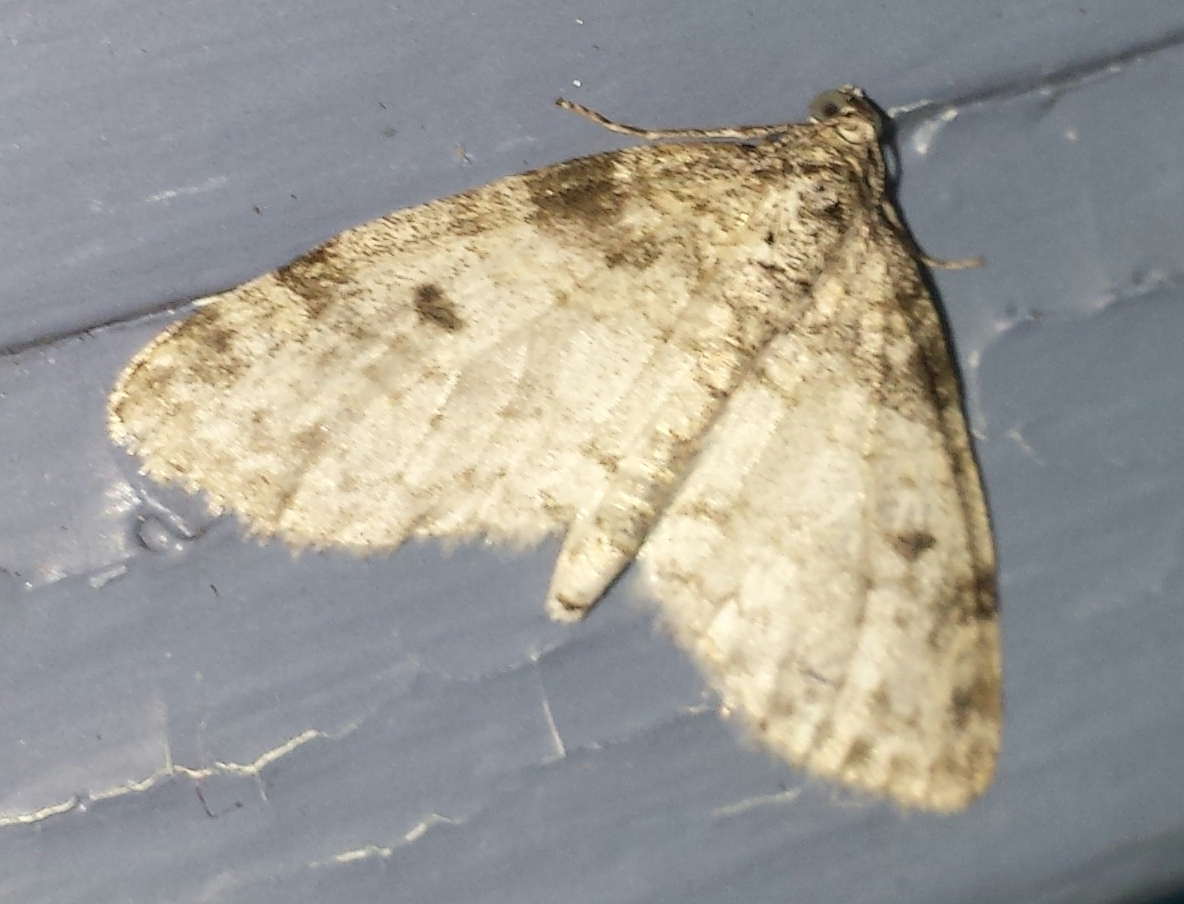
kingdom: Animalia
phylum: Arthropoda
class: Insecta
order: Lepidoptera
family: Geometridae
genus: Lobophora
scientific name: Lobophora nivigerata
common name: Powdered bigwing
